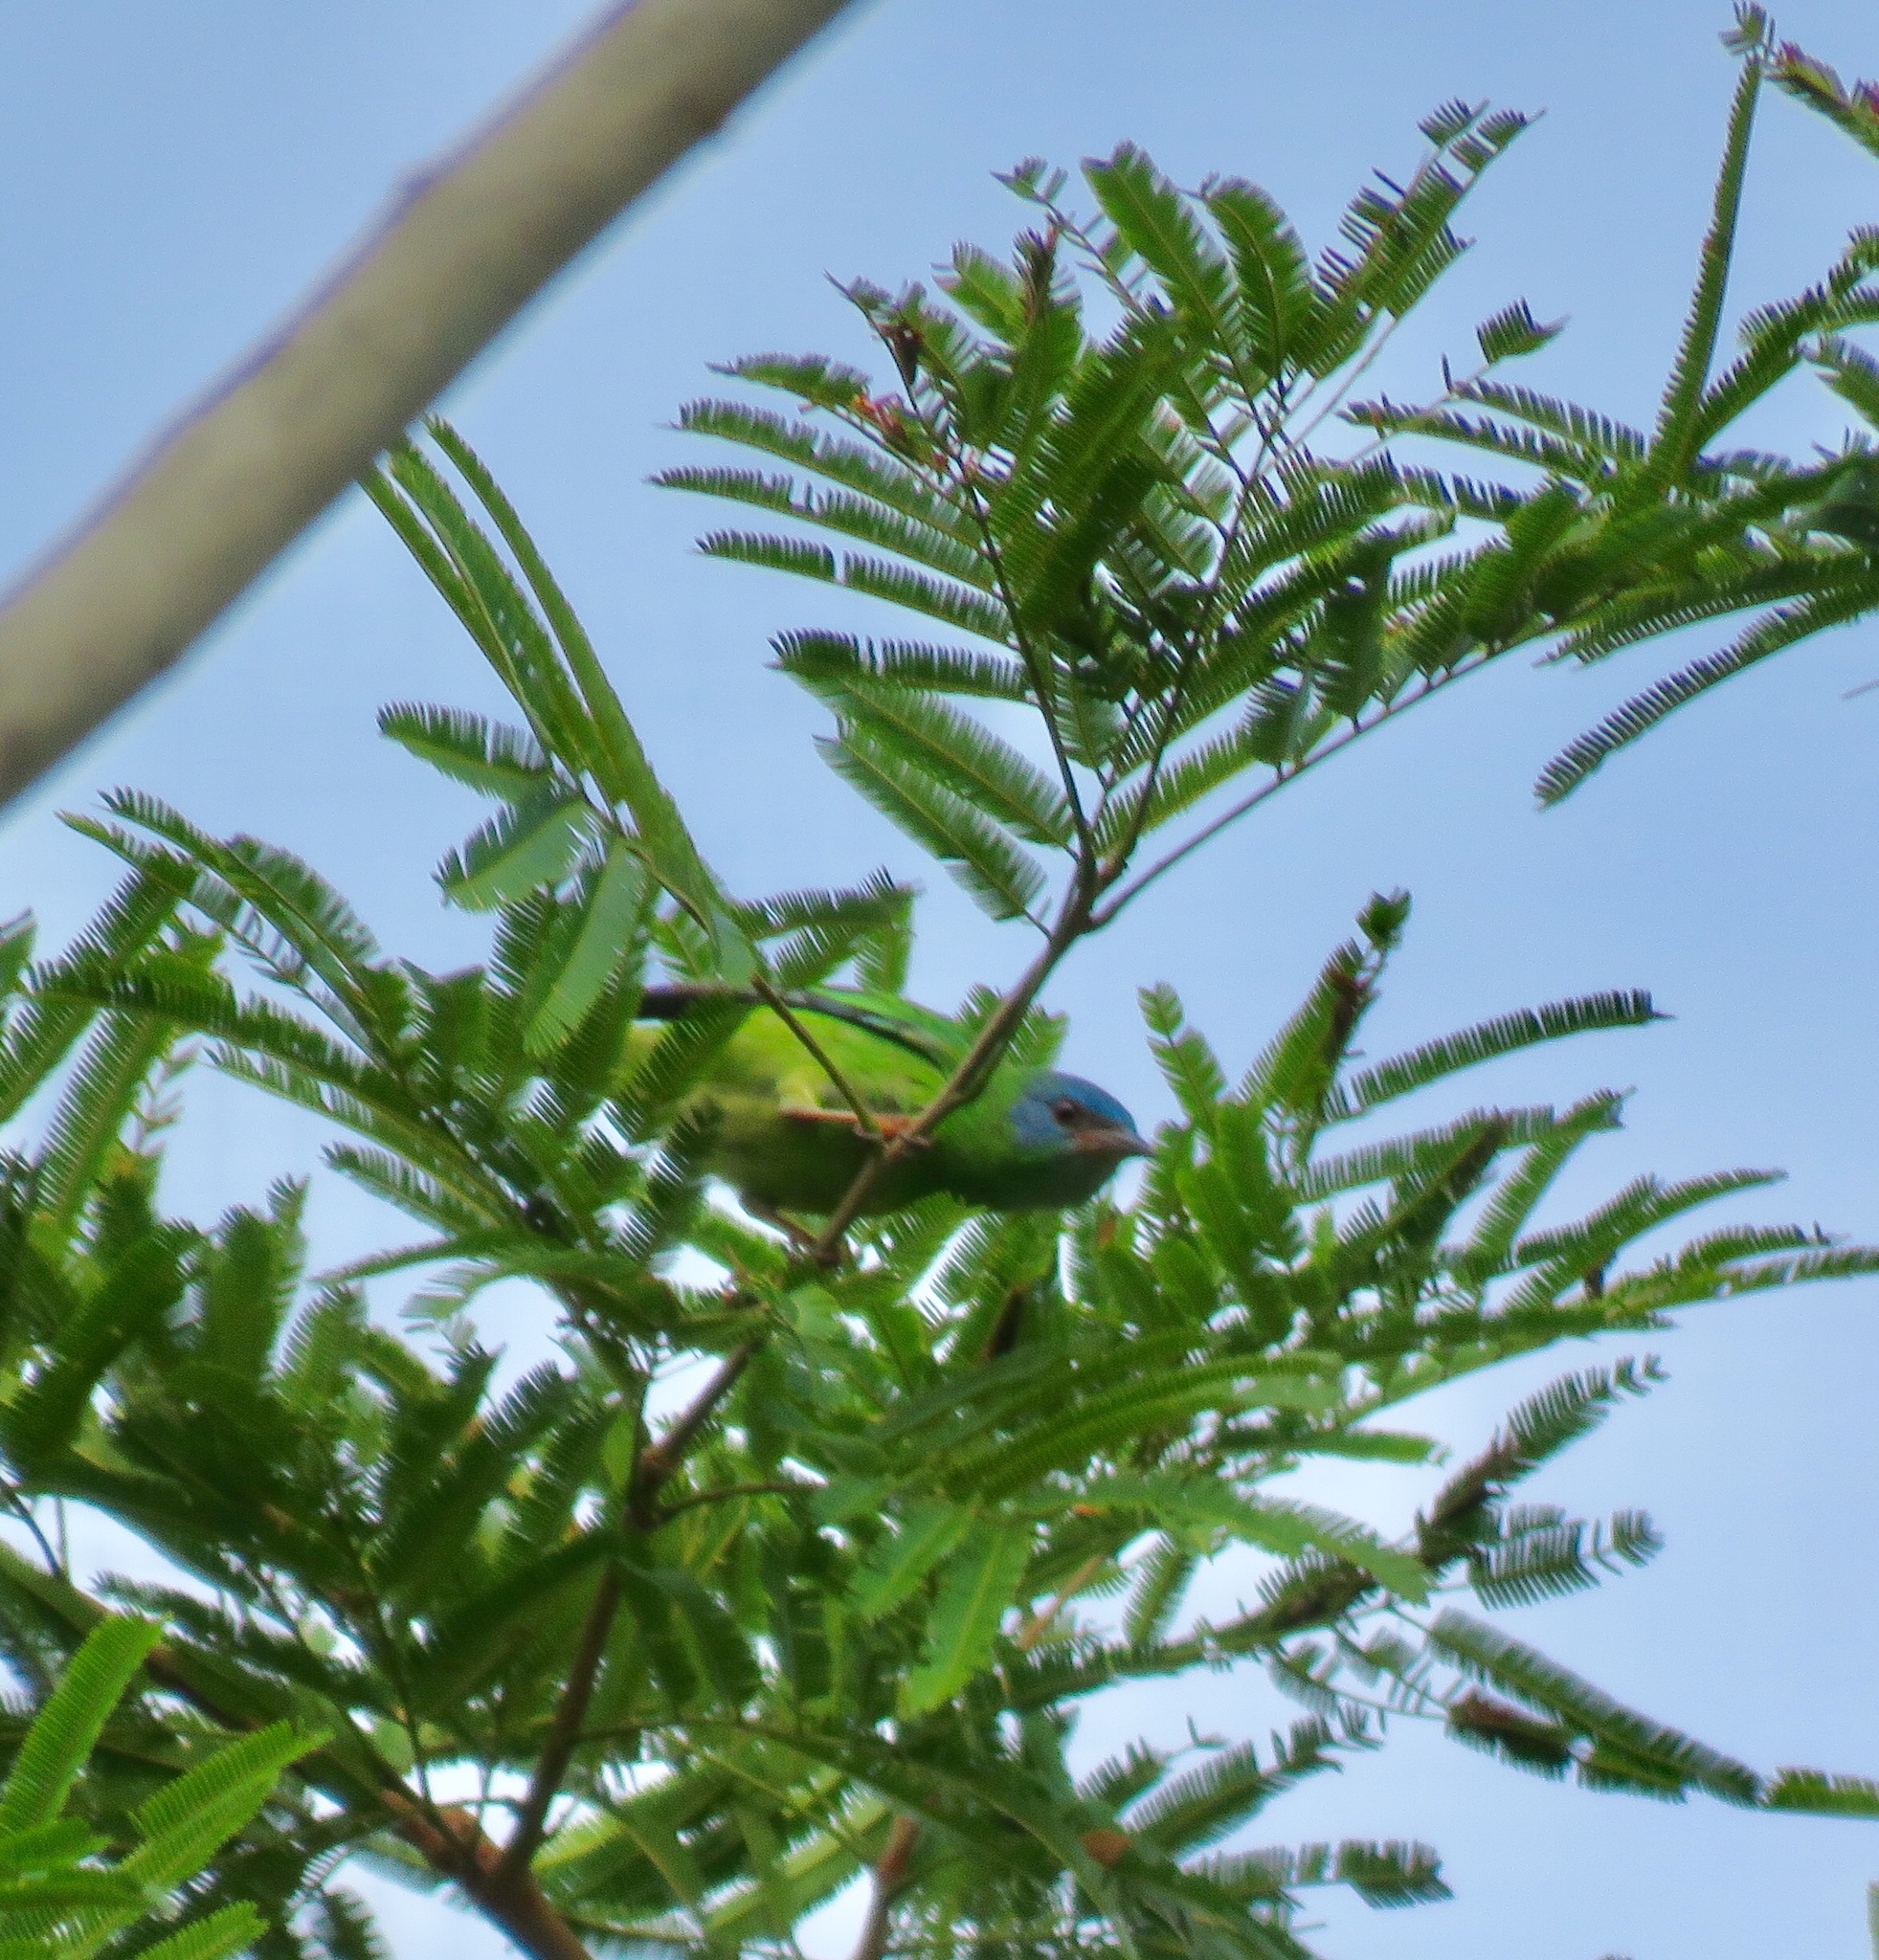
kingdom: Animalia
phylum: Chordata
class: Aves
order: Passeriformes
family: Thraupidae
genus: Dacnis
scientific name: Dacnis cayana
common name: Blue dacnis
